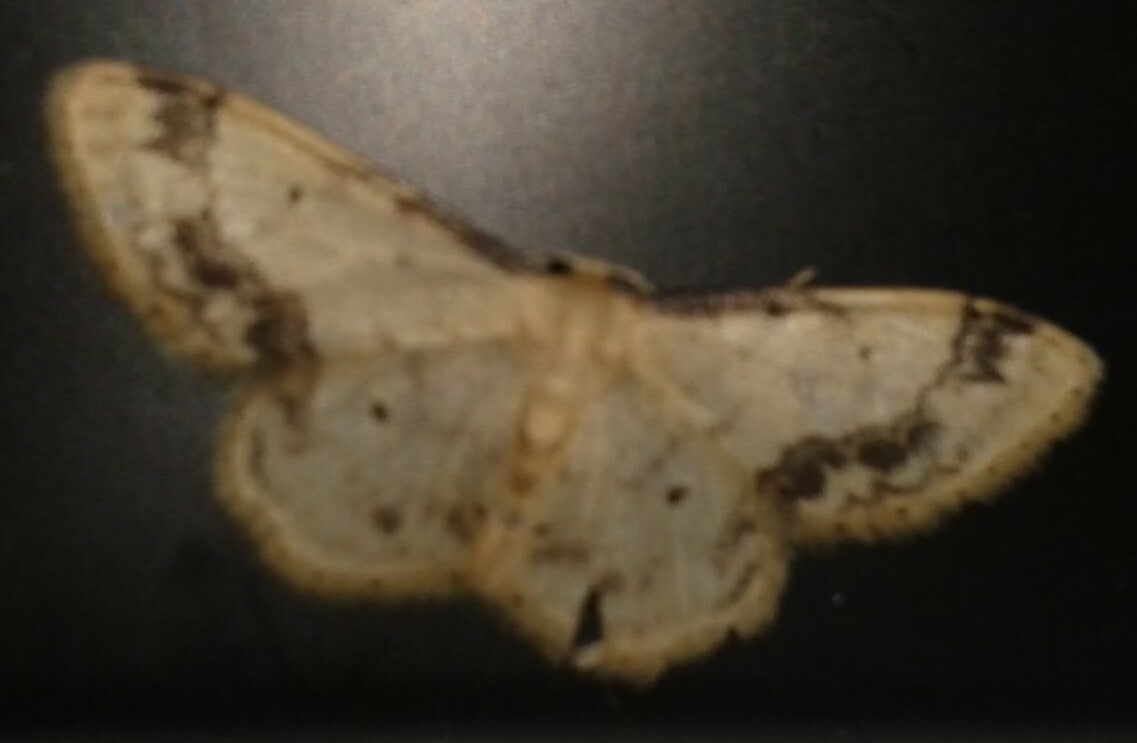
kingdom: Animalia
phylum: Arthropoda
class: Insecta
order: Lepidoptera
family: Geometridae
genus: Idaea
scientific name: Idaea trigeminata
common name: Treble brown spot
